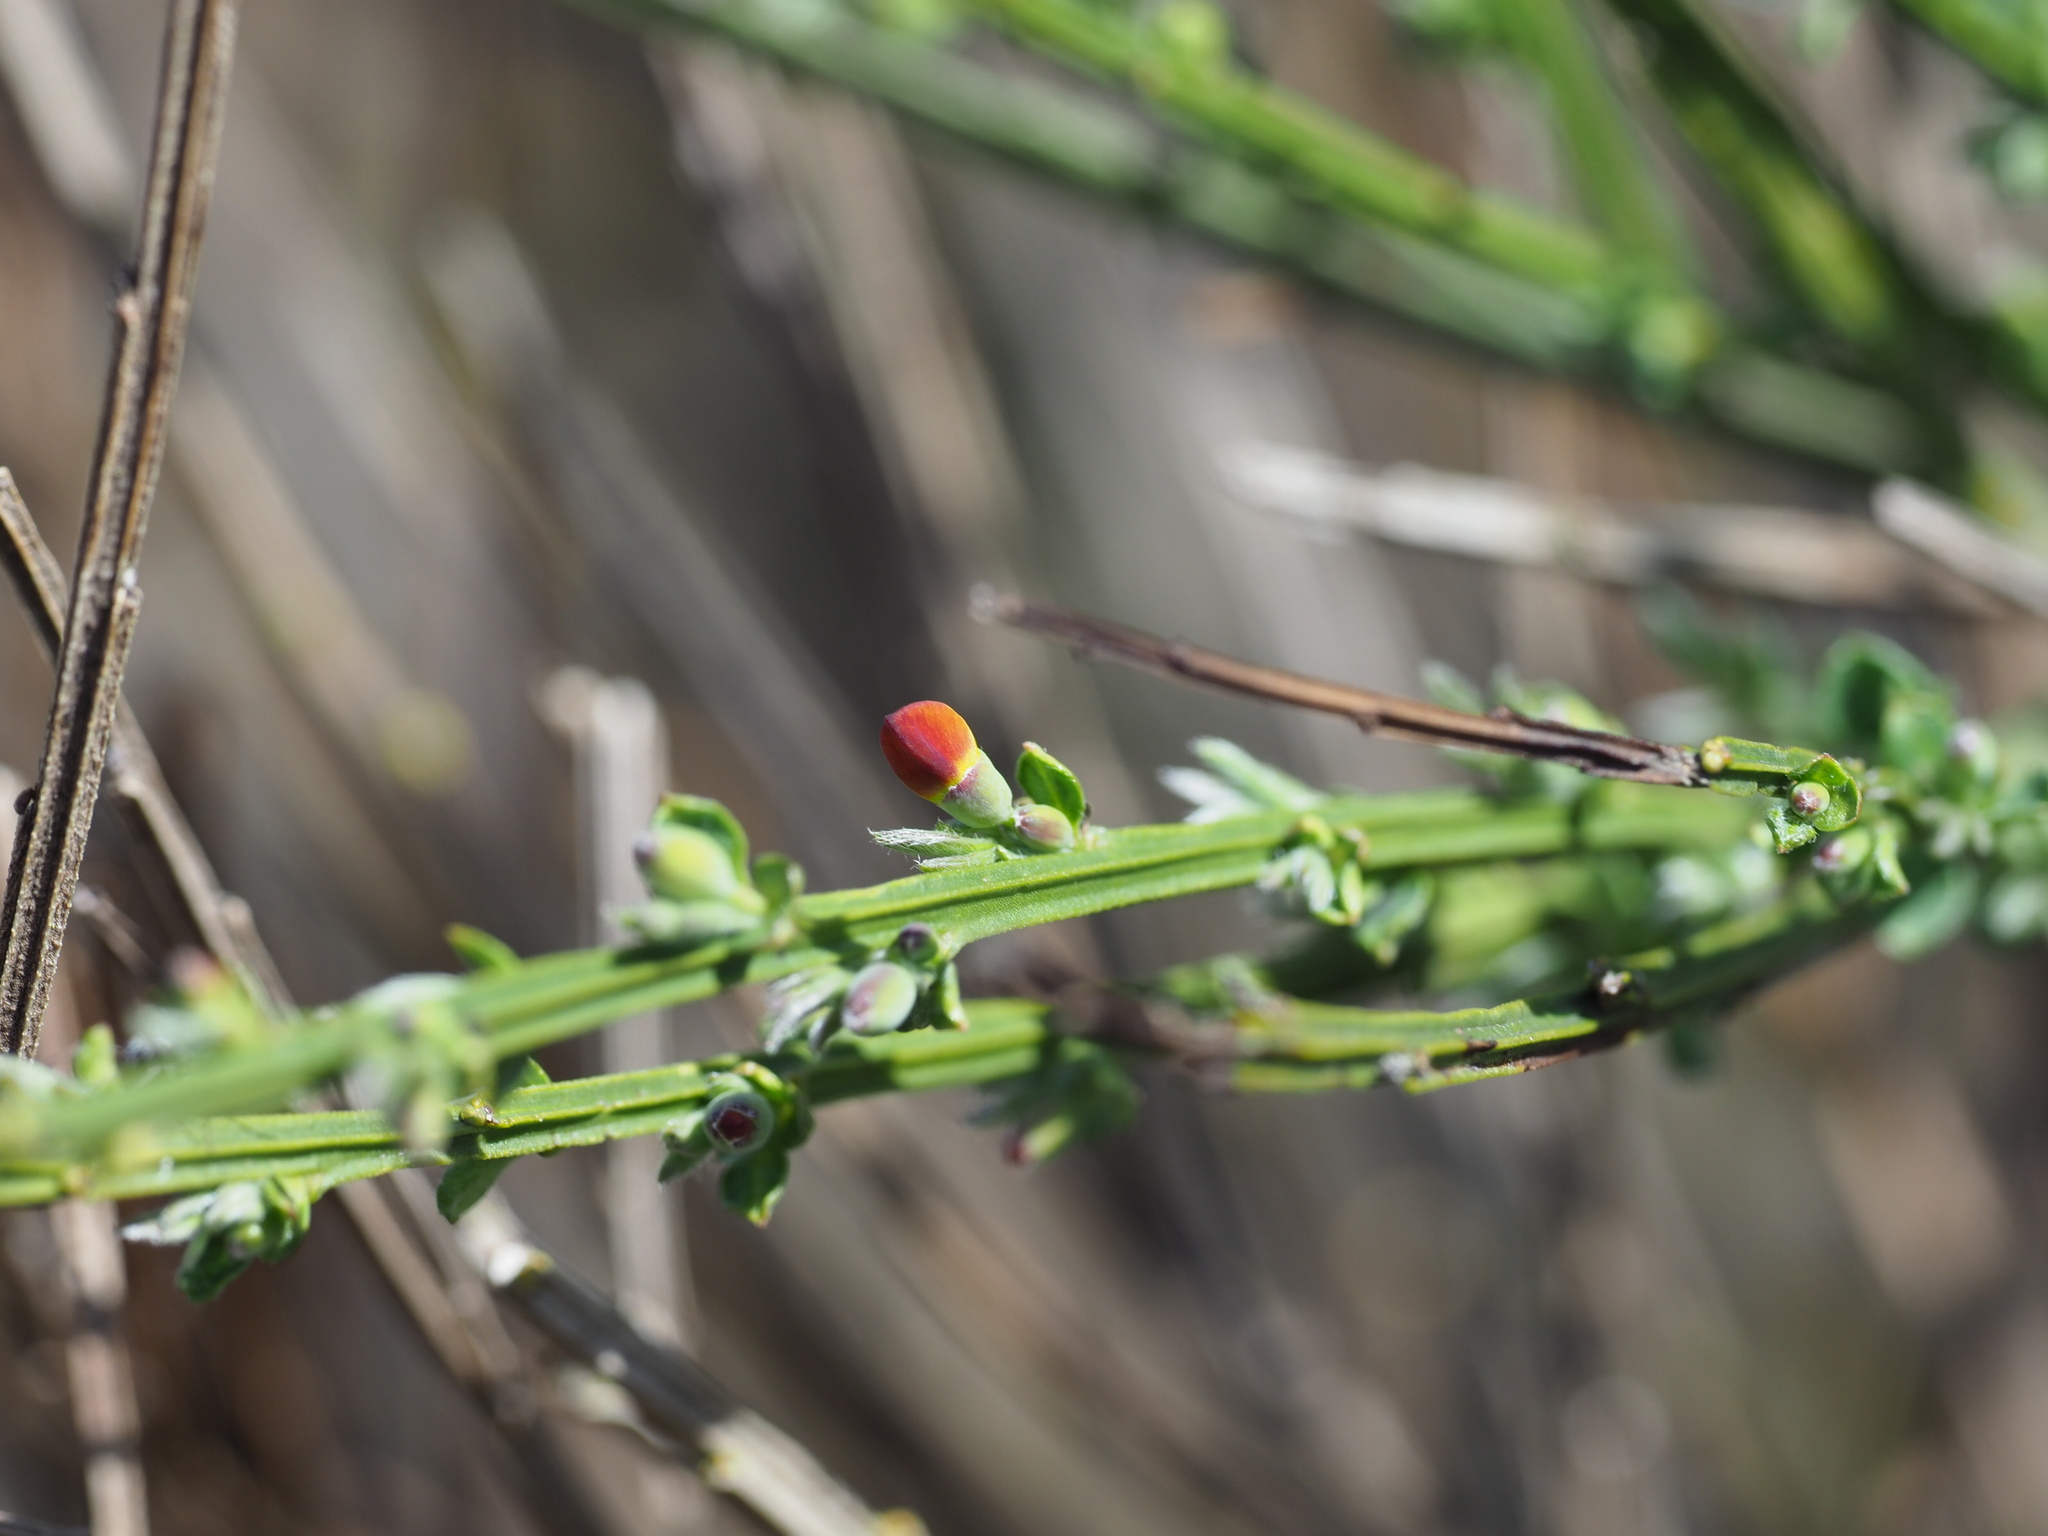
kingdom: Plantae
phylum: Tracheophyta
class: Magnoliopsida
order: Fabales
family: Fabaceae
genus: Cytisus
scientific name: Cytisus scoparius
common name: Scotch broom
